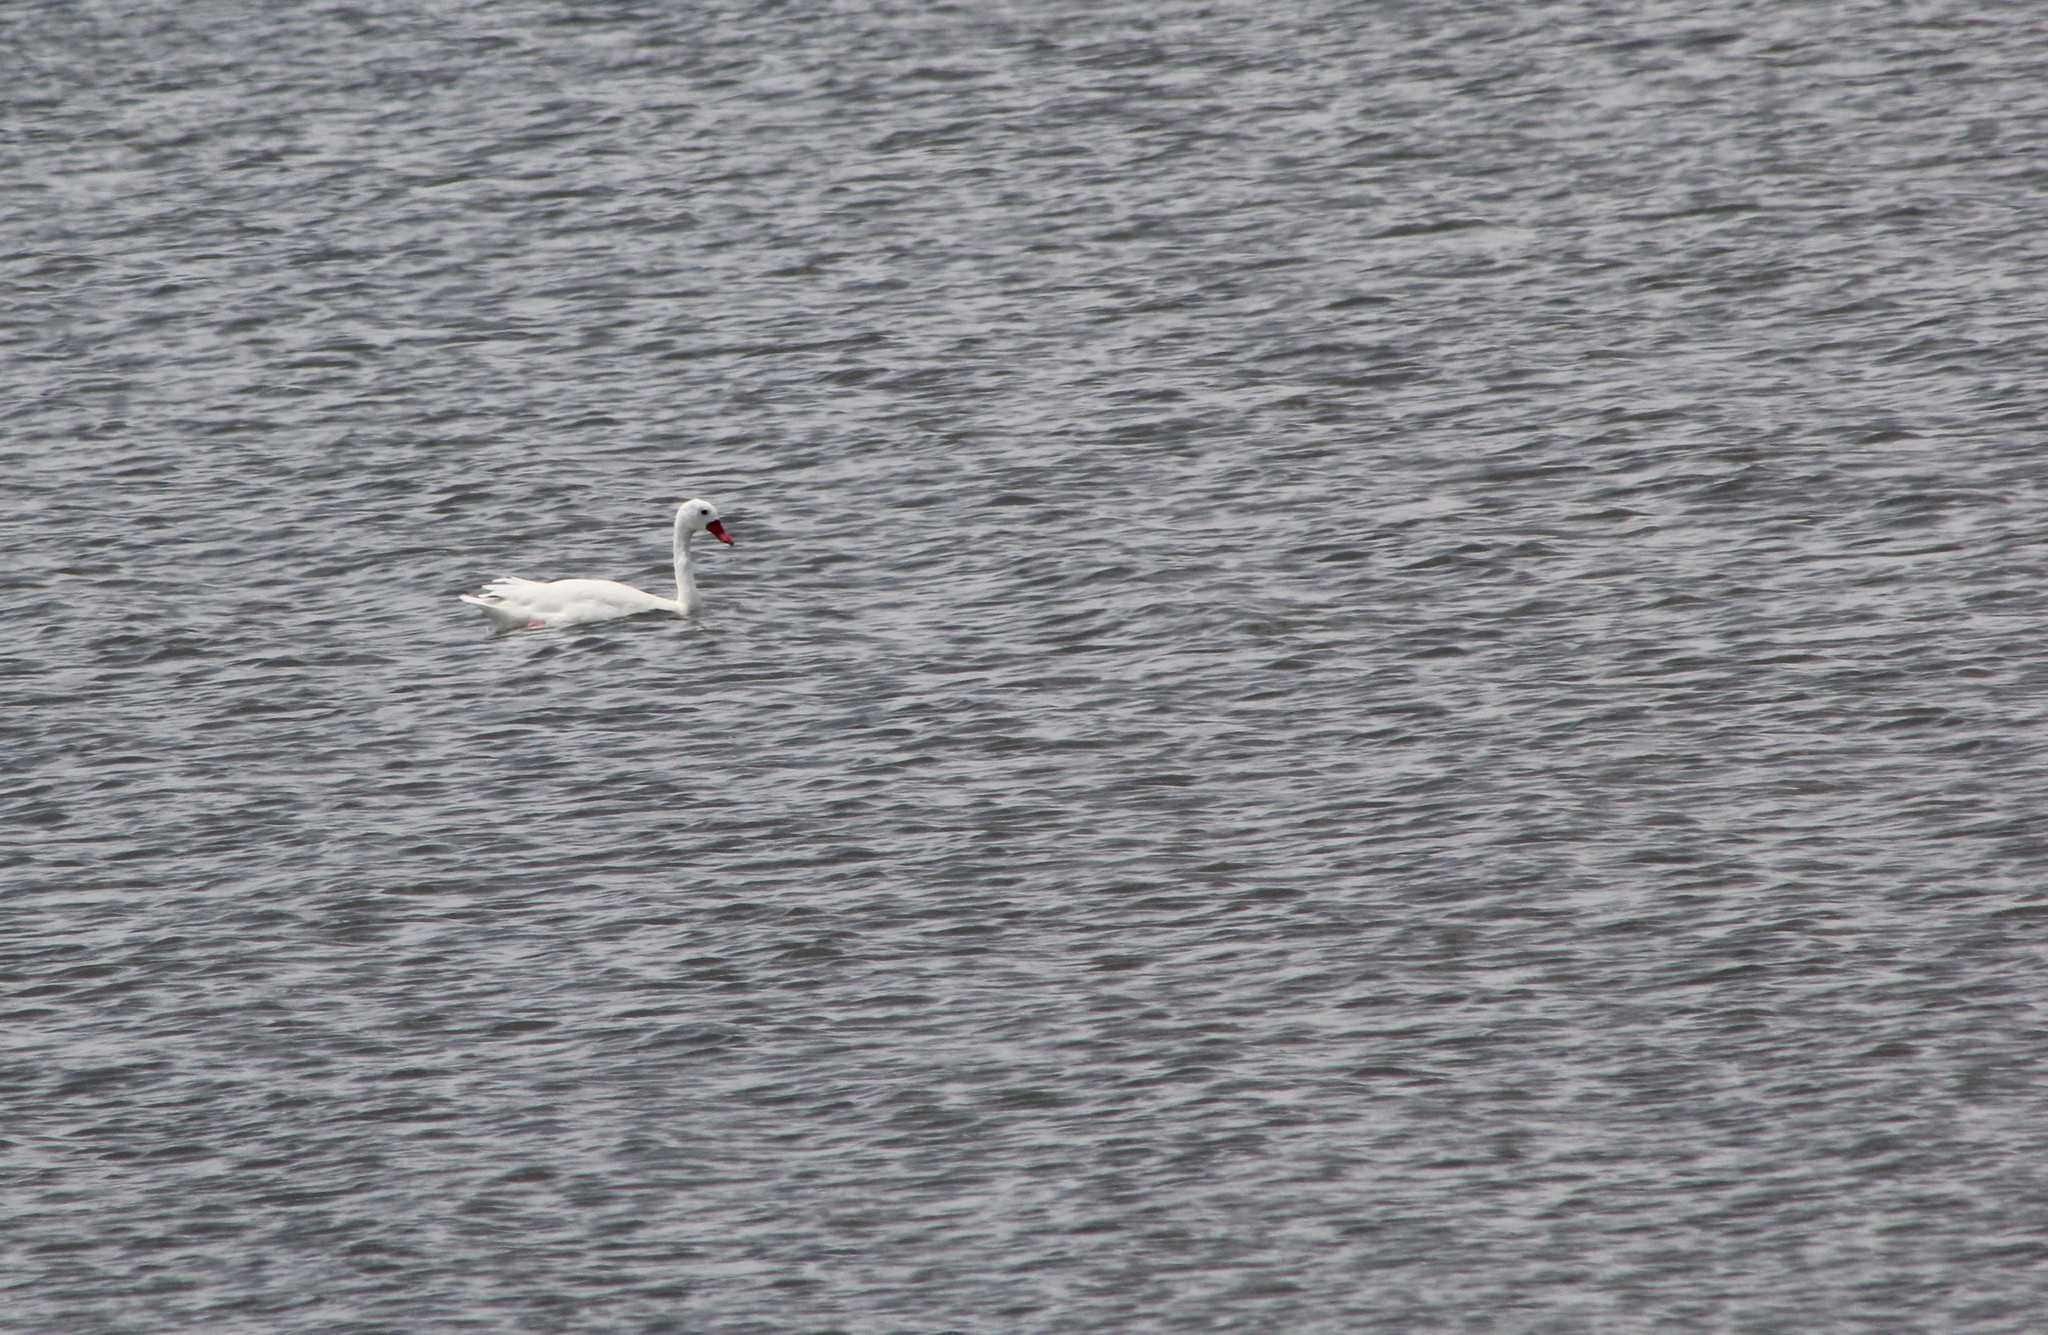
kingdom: Animalia
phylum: Chordata
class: Aves
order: Anseriformes
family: Anatidae
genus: Coscoroba
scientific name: Coscoroba coscoroba
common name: Coscoroba swan
